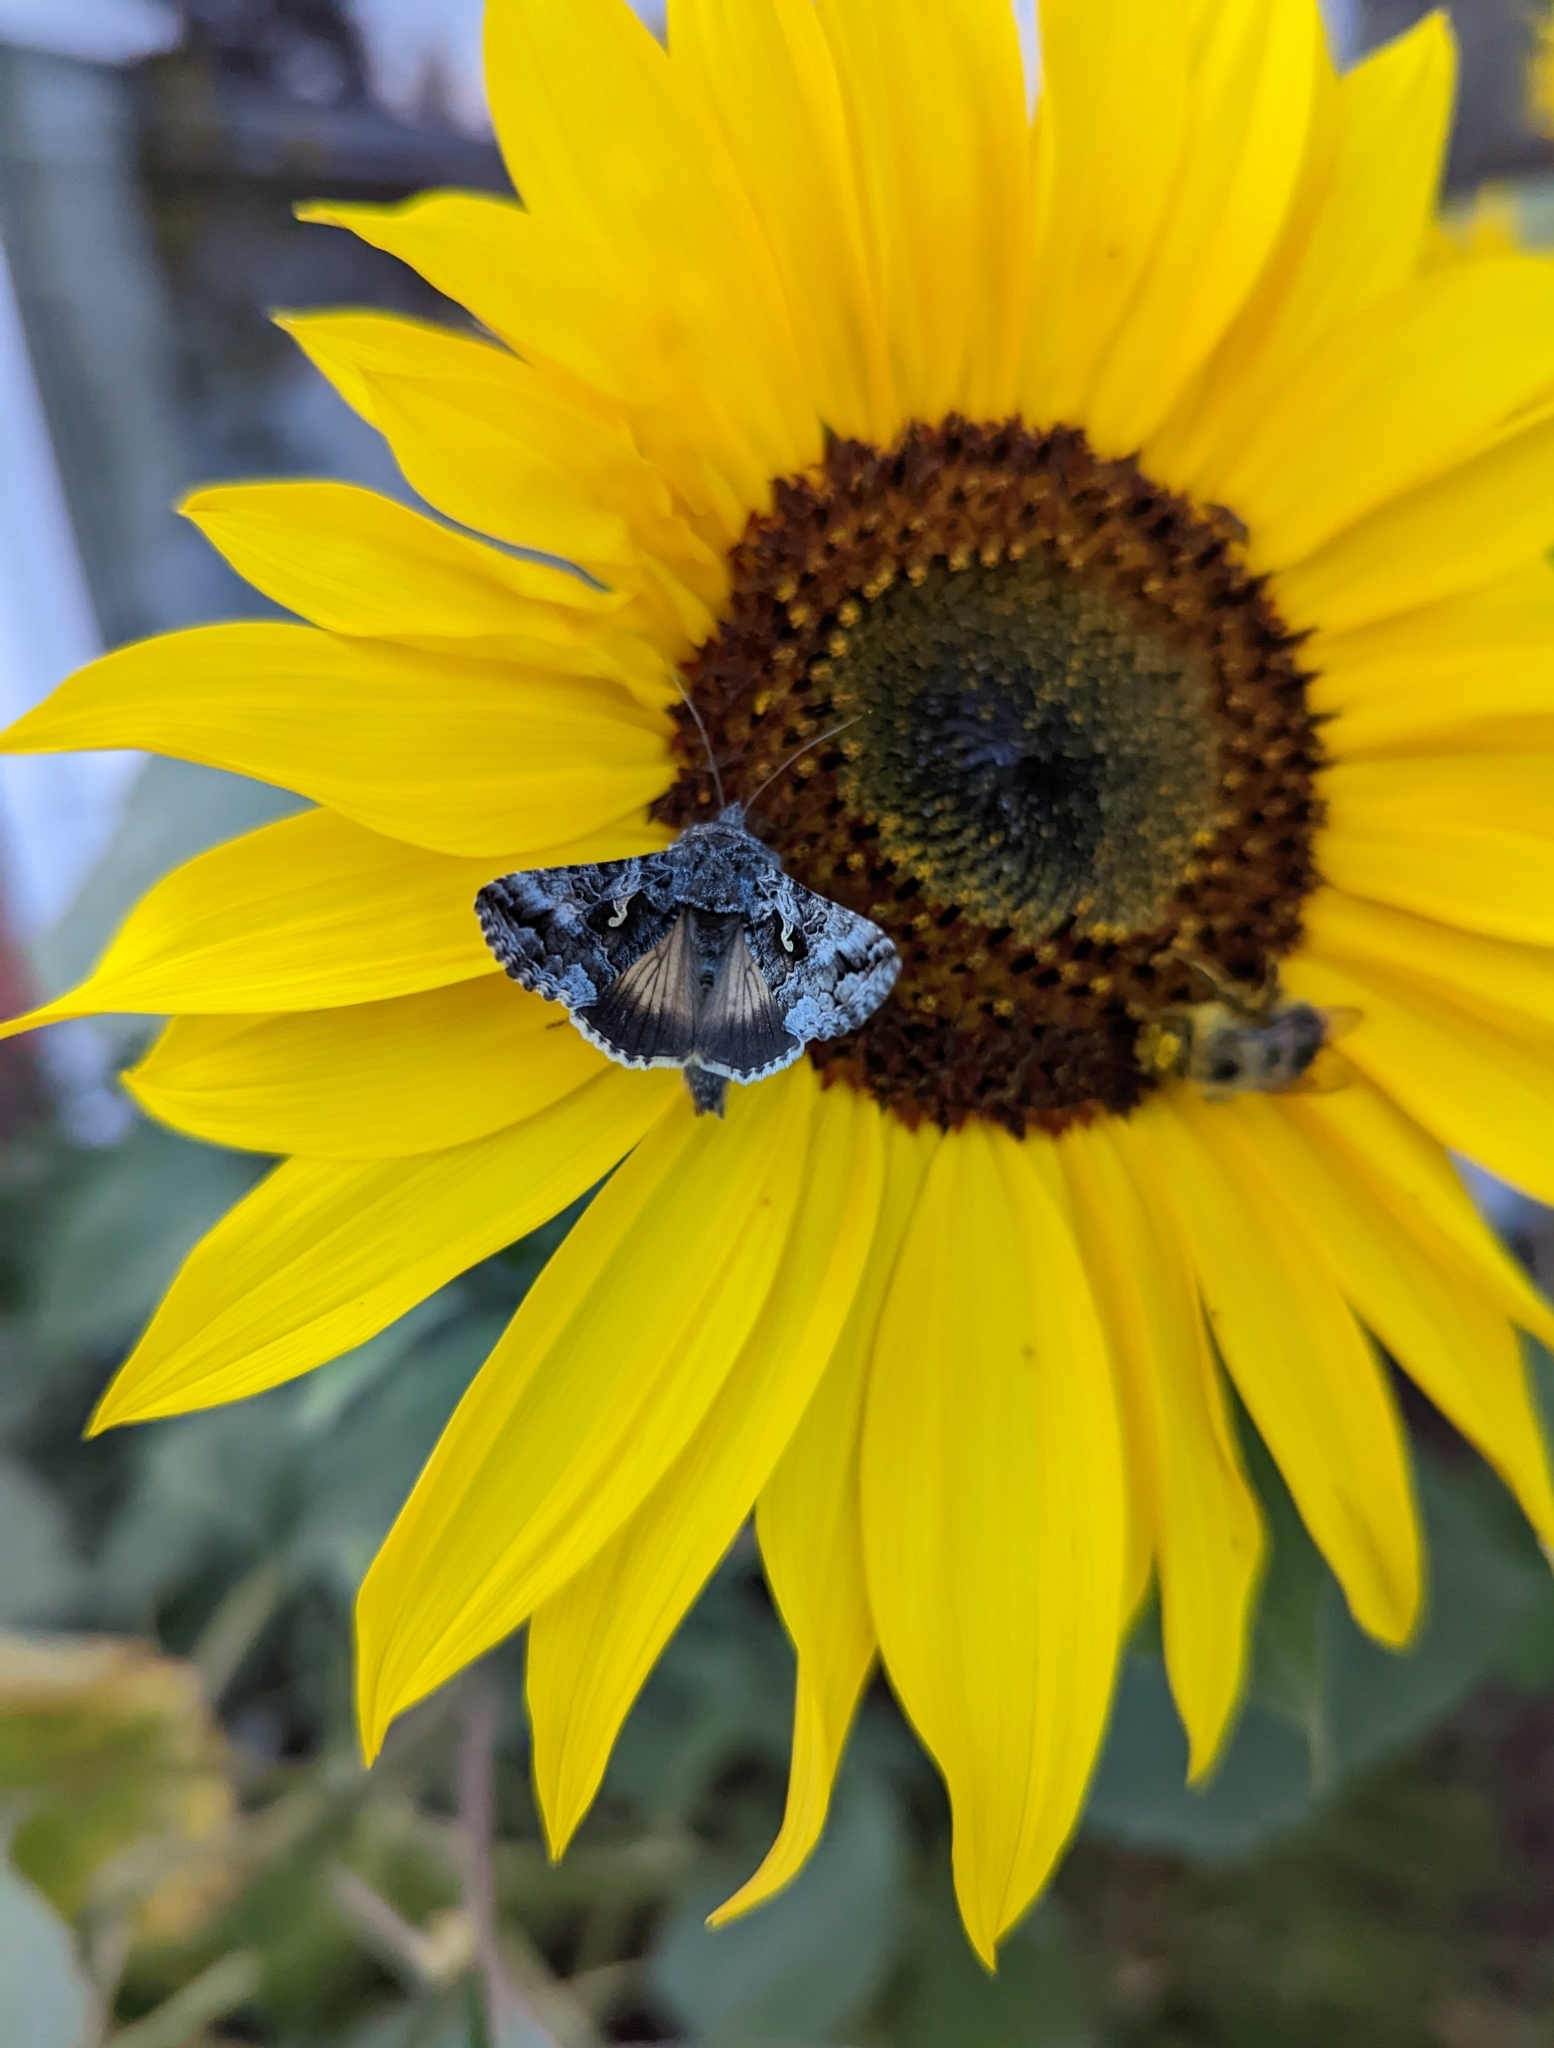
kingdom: Animalia
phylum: Arthropoda
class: Insecta
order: Lepidoptera
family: Noctuidae
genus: Autographa
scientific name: Autographa californica
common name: Alfalfa looper
